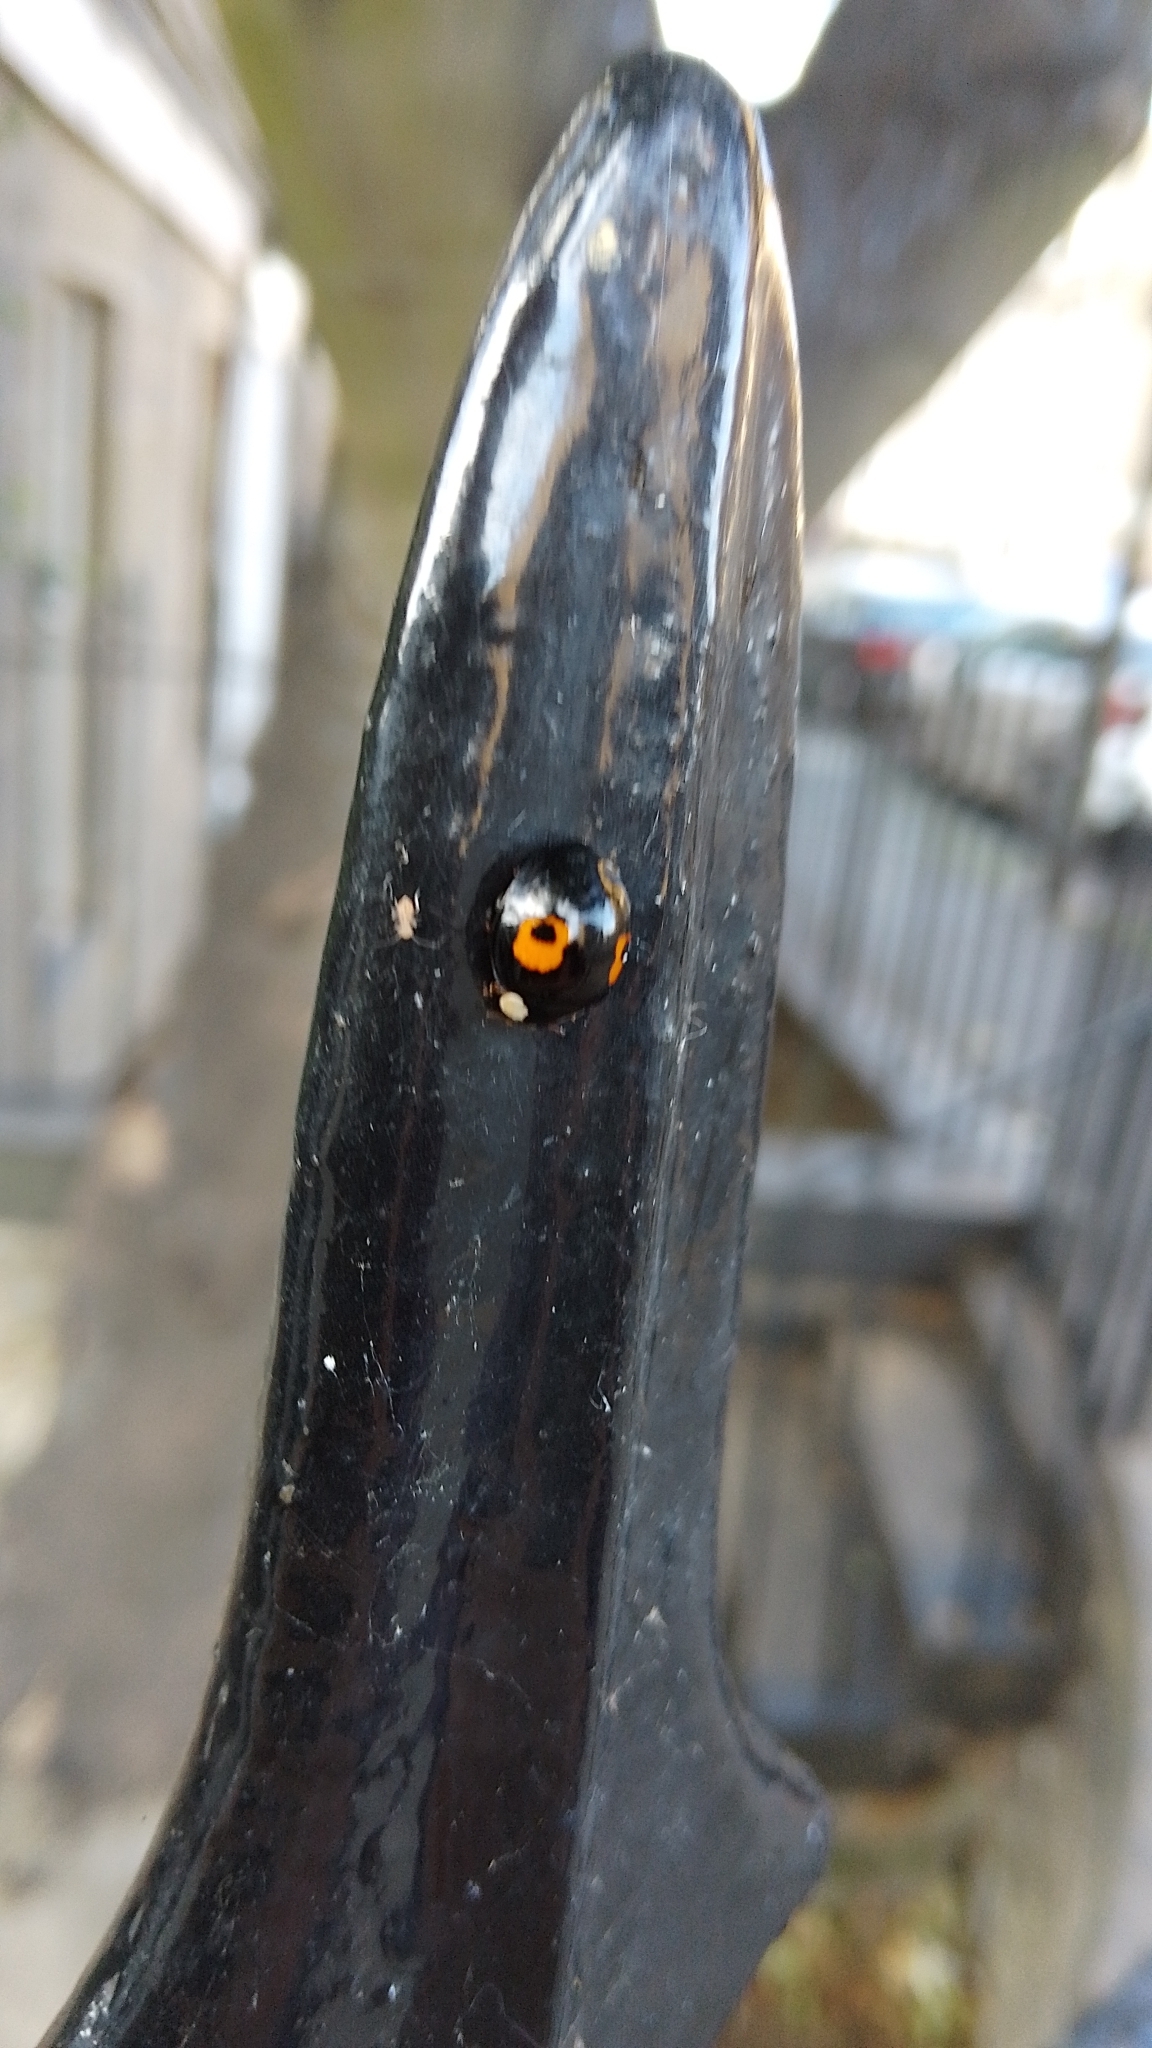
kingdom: Animalia
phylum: Arthropoda
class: Insecta
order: Coleoptera
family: Coccinellidae
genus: Harmonia
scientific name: Harmonia axyridis
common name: Harlequin ladybird
